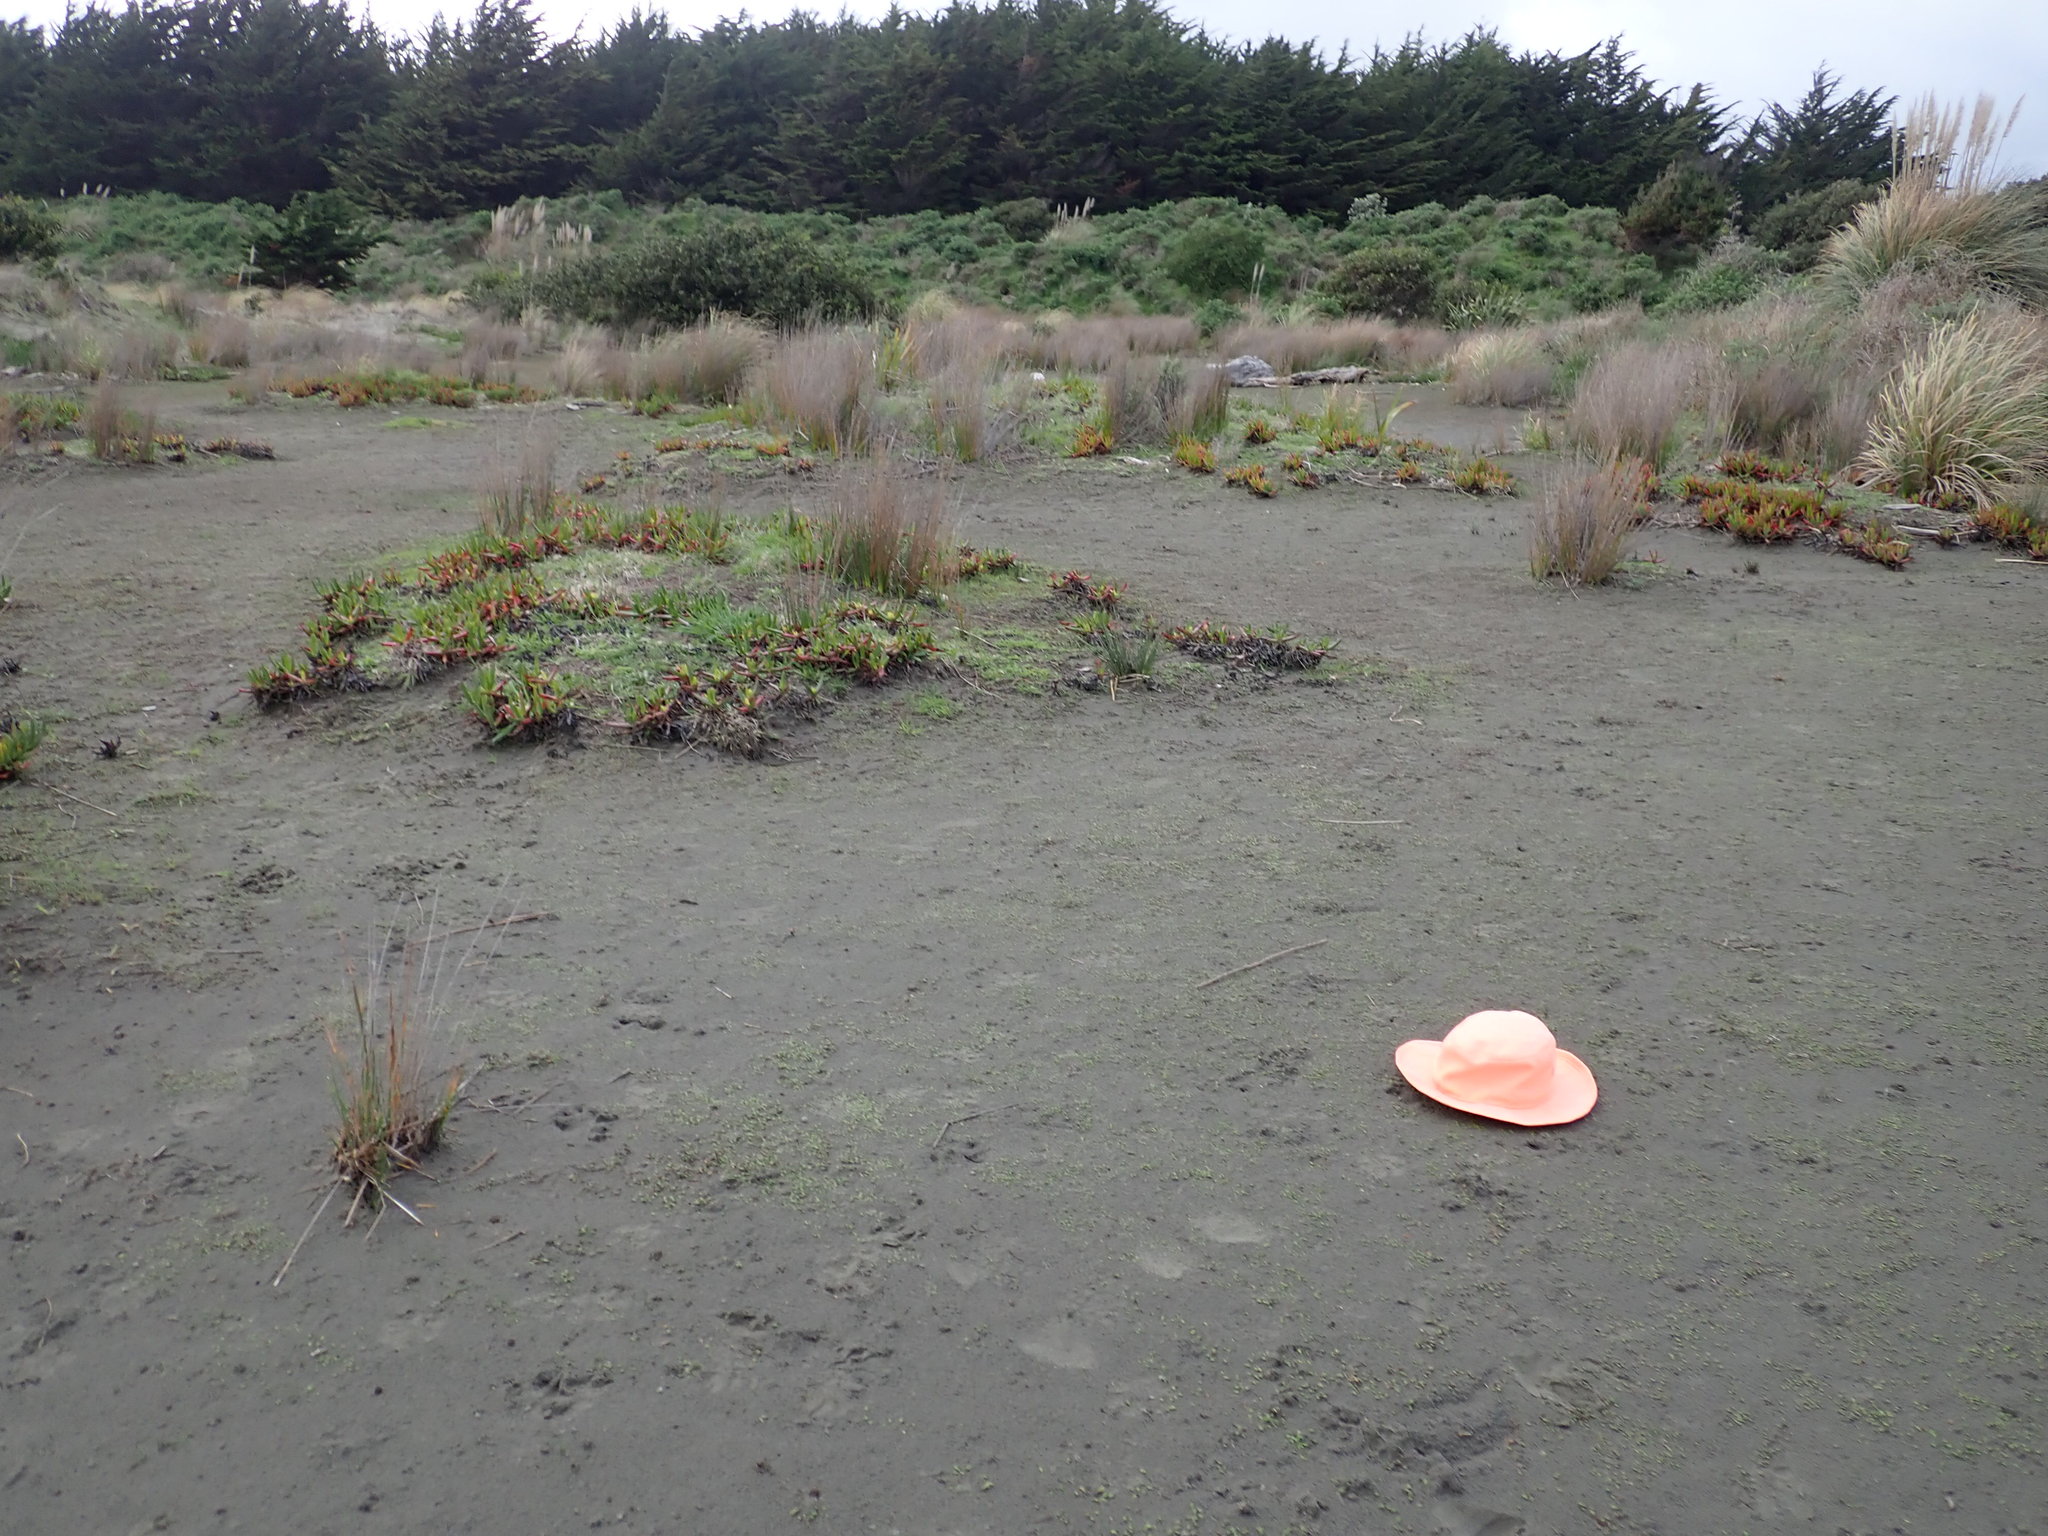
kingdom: Plantae
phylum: Tracheophyta
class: Magnoliopsida
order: Asterales
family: Goodeniaceae
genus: Goodenia
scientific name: Goodenia heenanii
